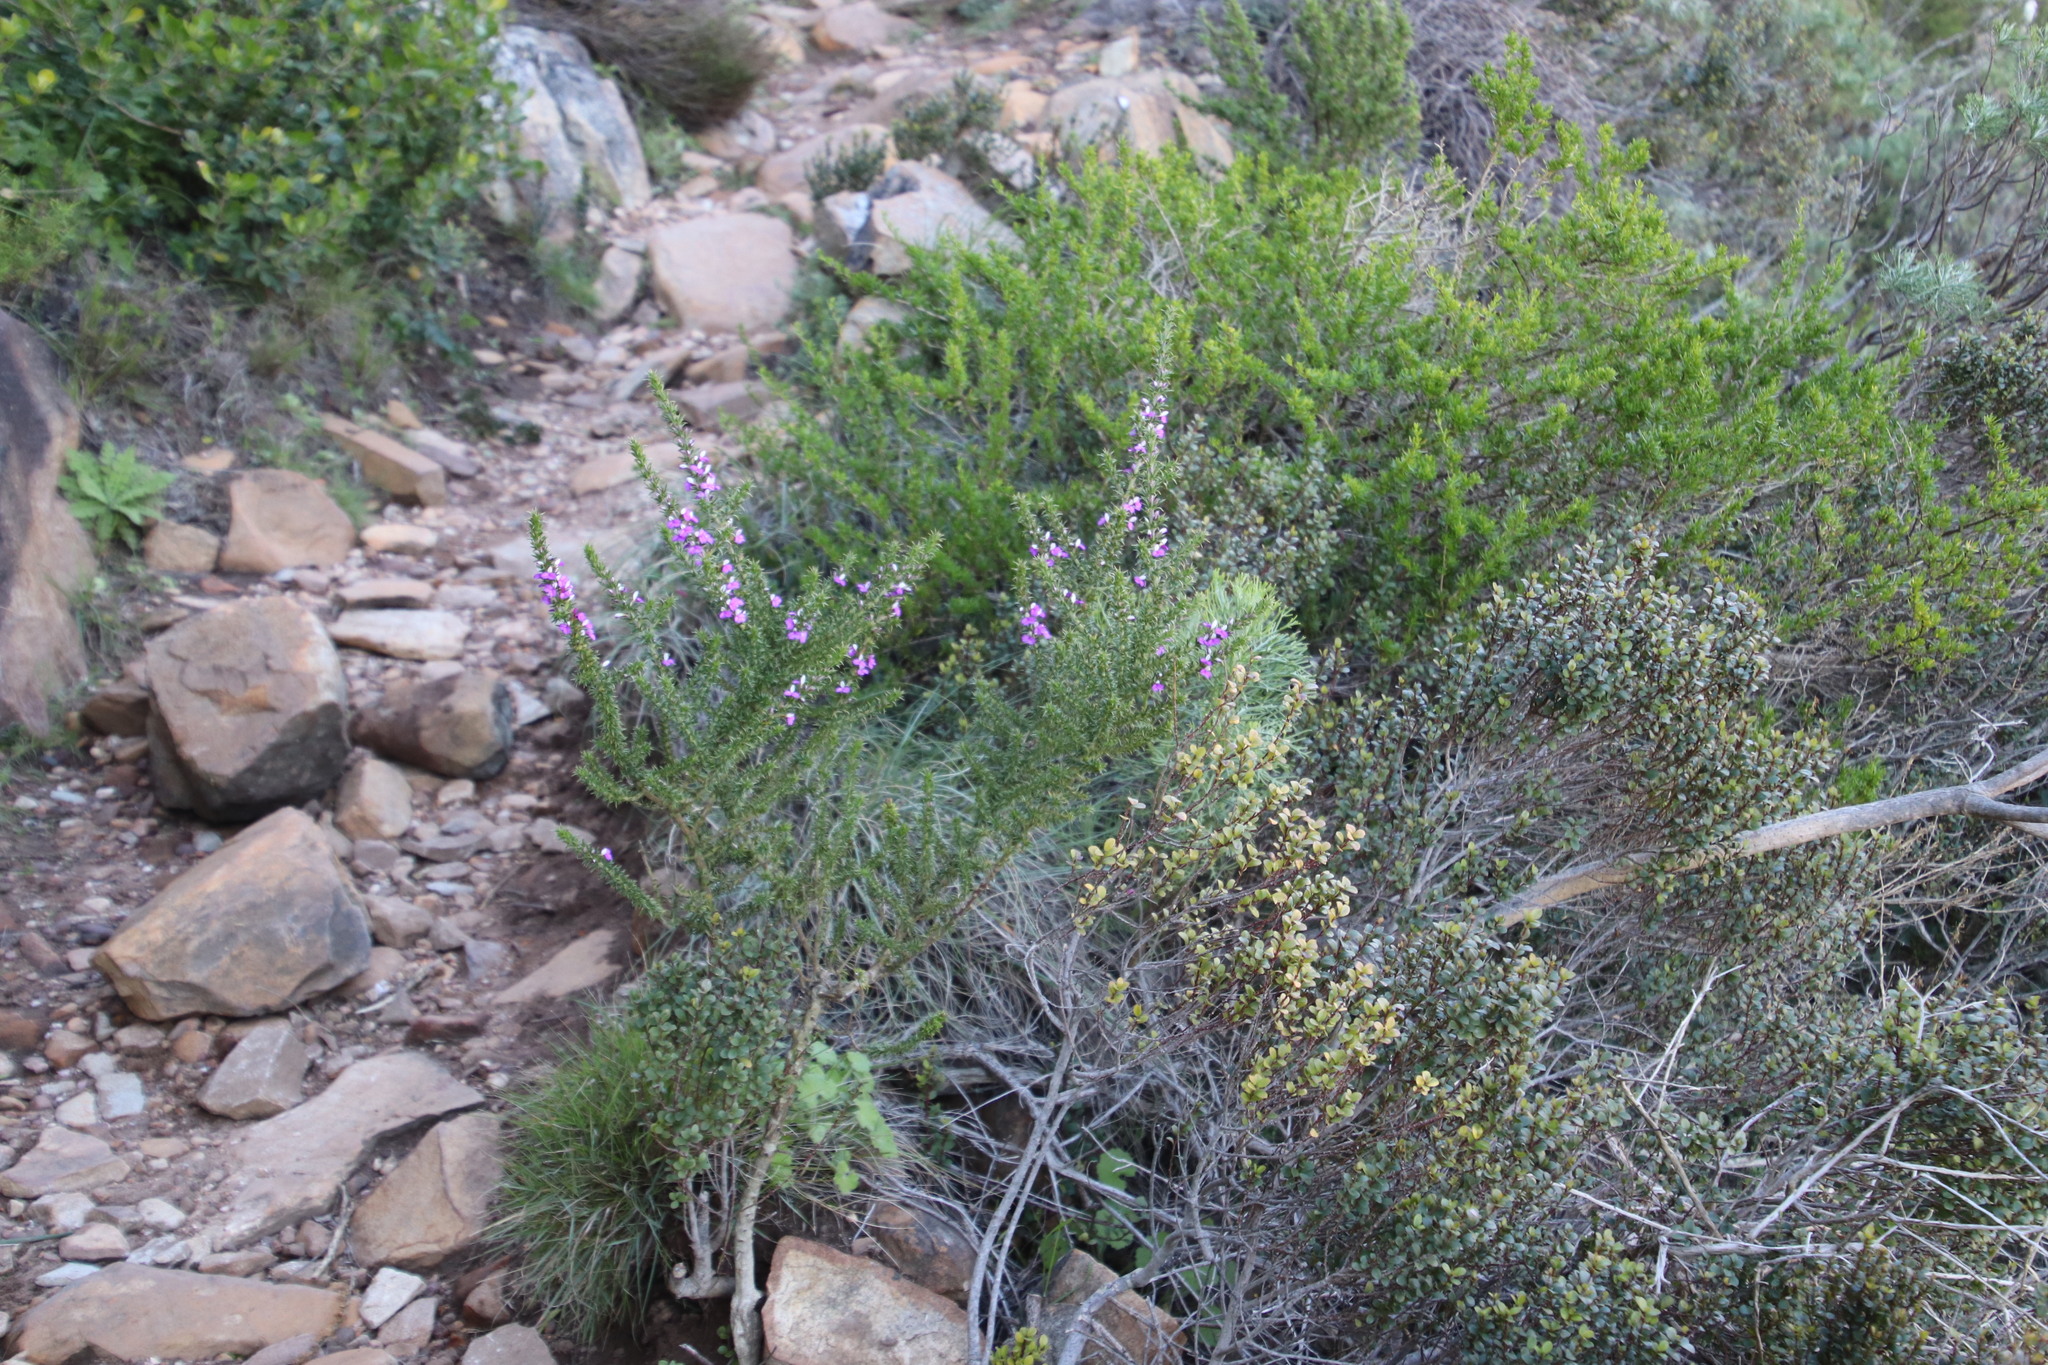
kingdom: Plantae
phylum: Tracheophyta
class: Magnoliopsida
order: Fabales
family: Polygalaceae
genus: Muraltia
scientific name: Muraltia heisteria
